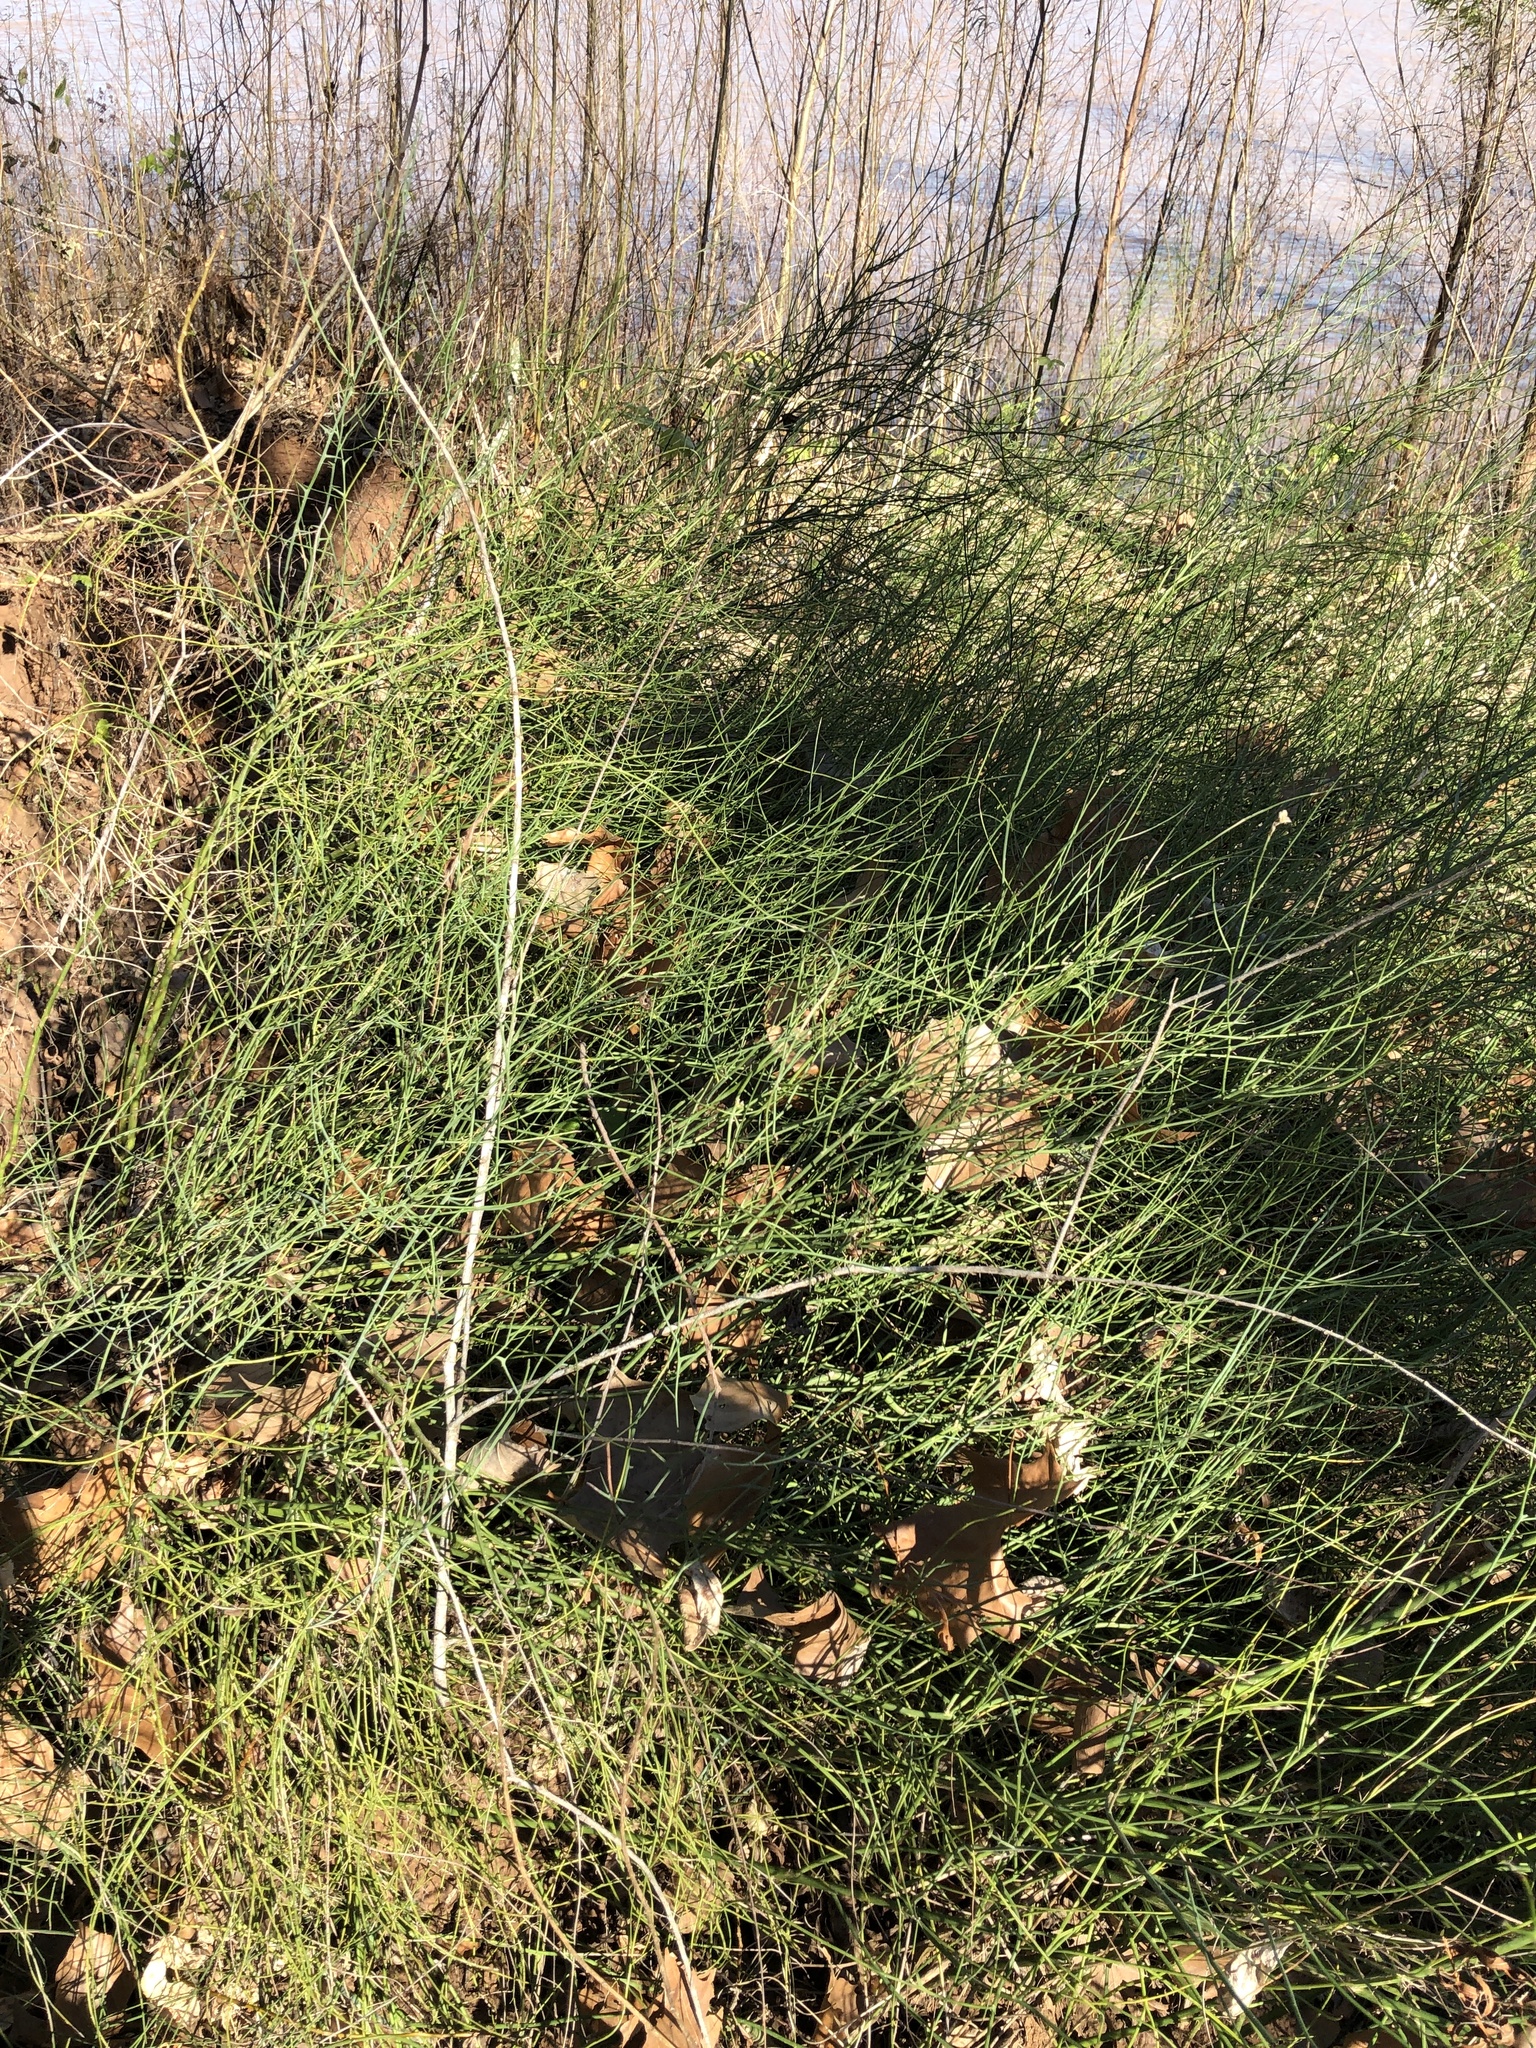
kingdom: Plantae
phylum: Tracheophyta
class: Magnoliopsida
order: Asterales
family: Asteraceae
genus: Chloracantha
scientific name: Chloracantha spinosa
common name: Mexican devilweed
